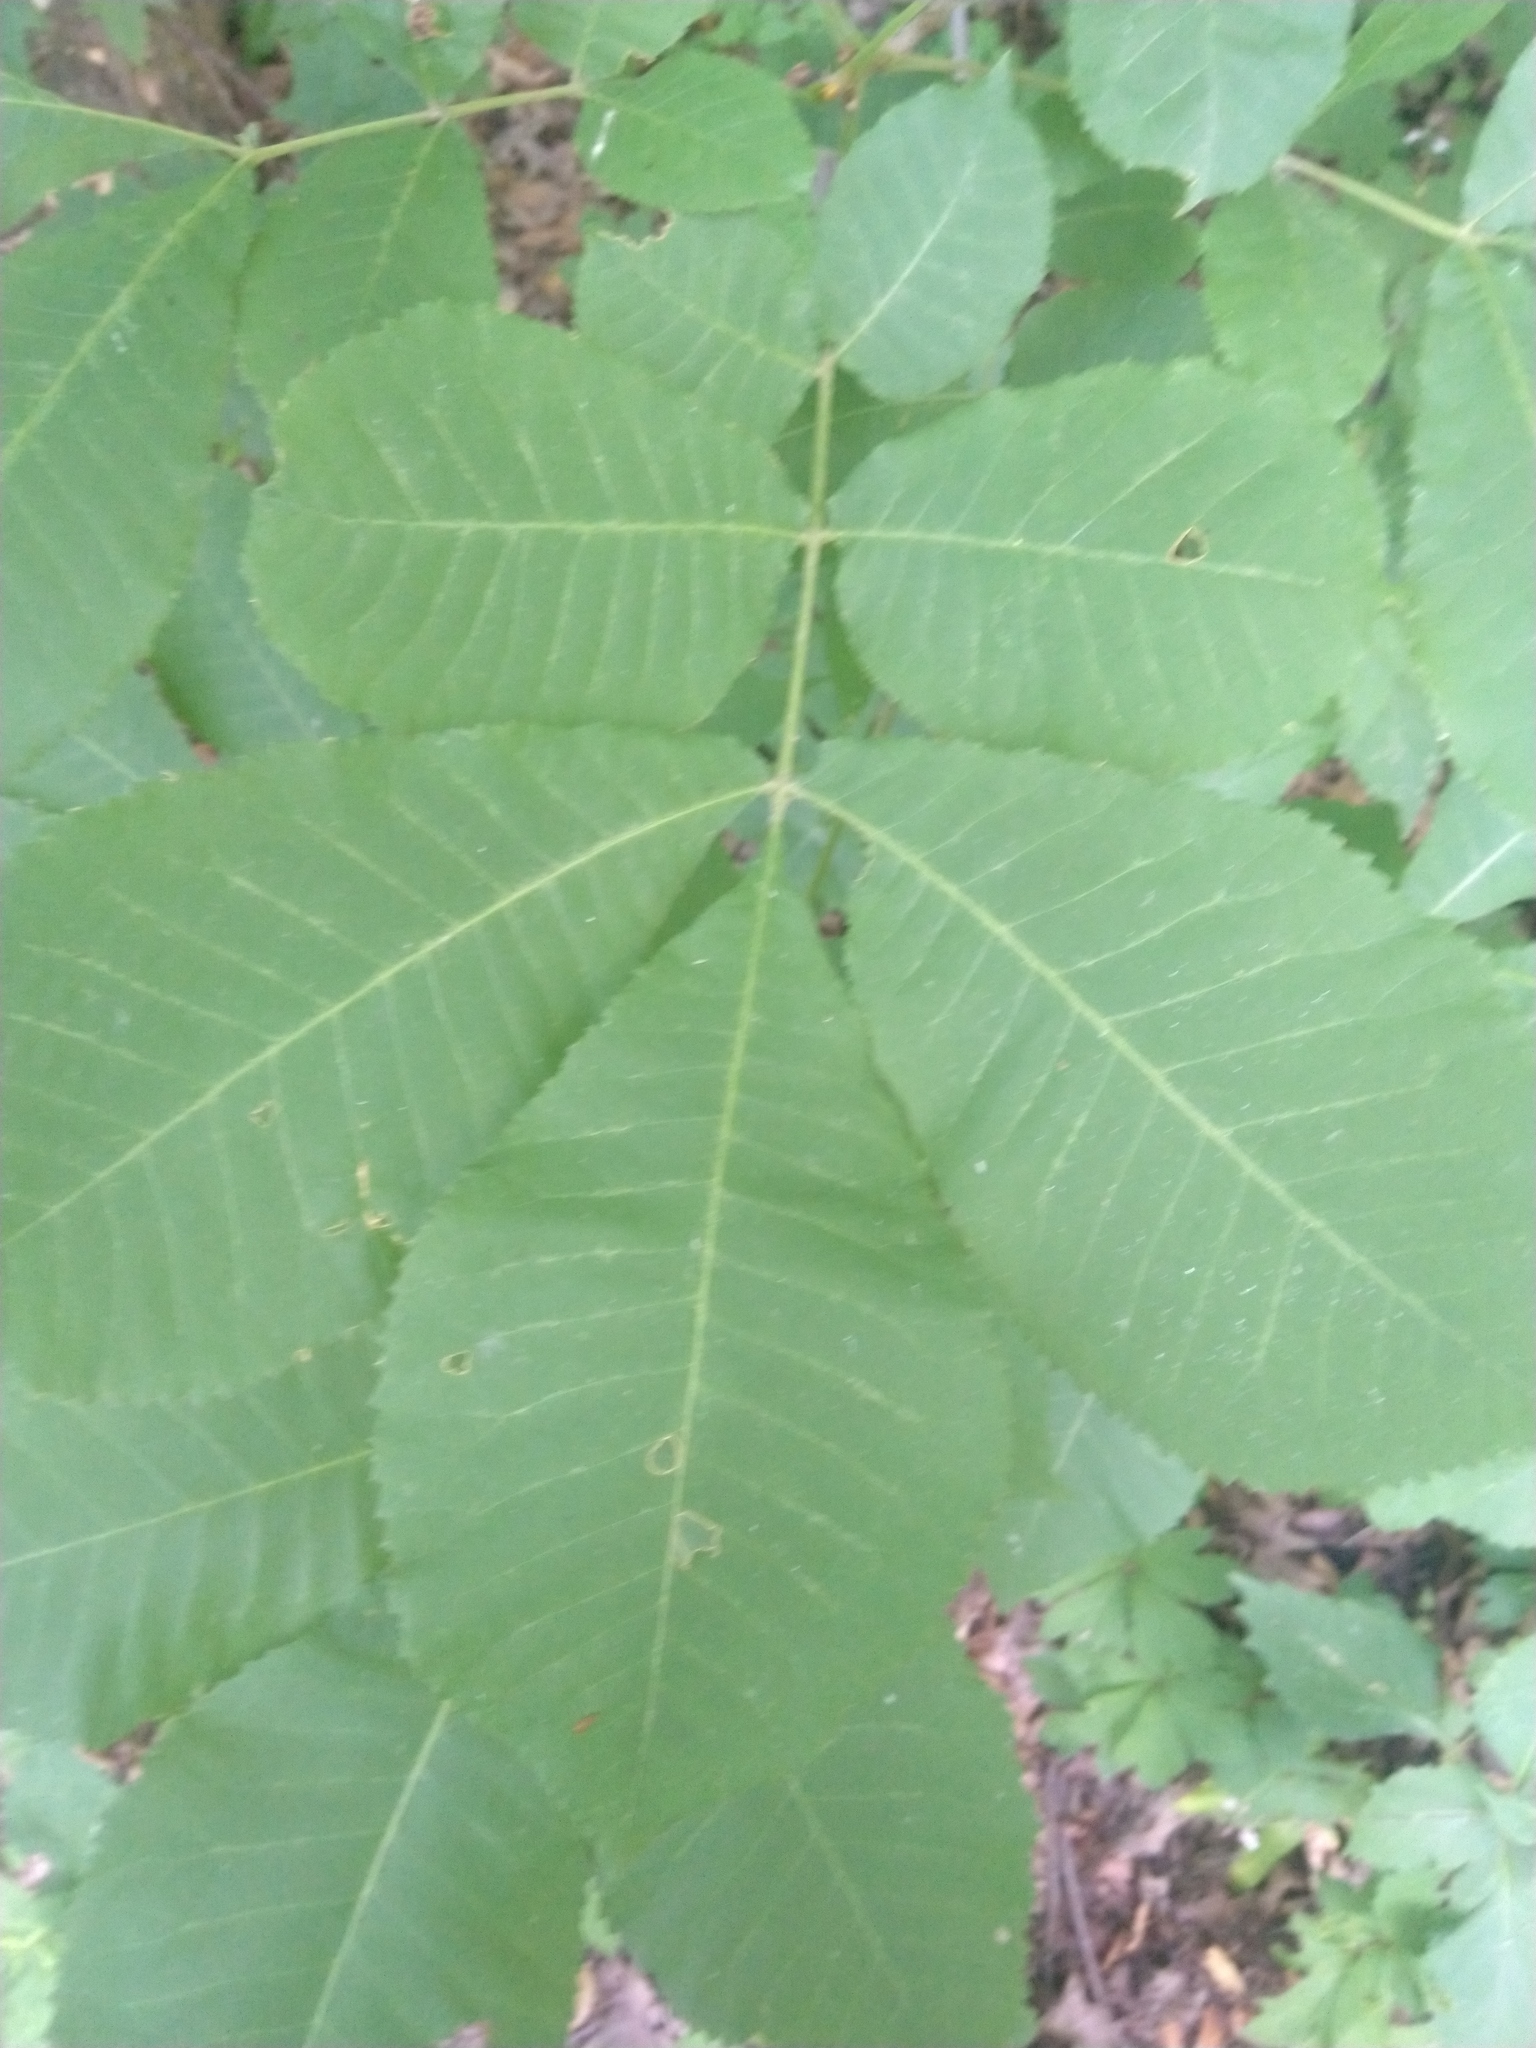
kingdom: Plantae
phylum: Tracheophyta
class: Magnoliopsida
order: Fagales
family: Juglandaceae
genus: Carya
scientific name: Carya cordiformis
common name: Bitternut hickory
